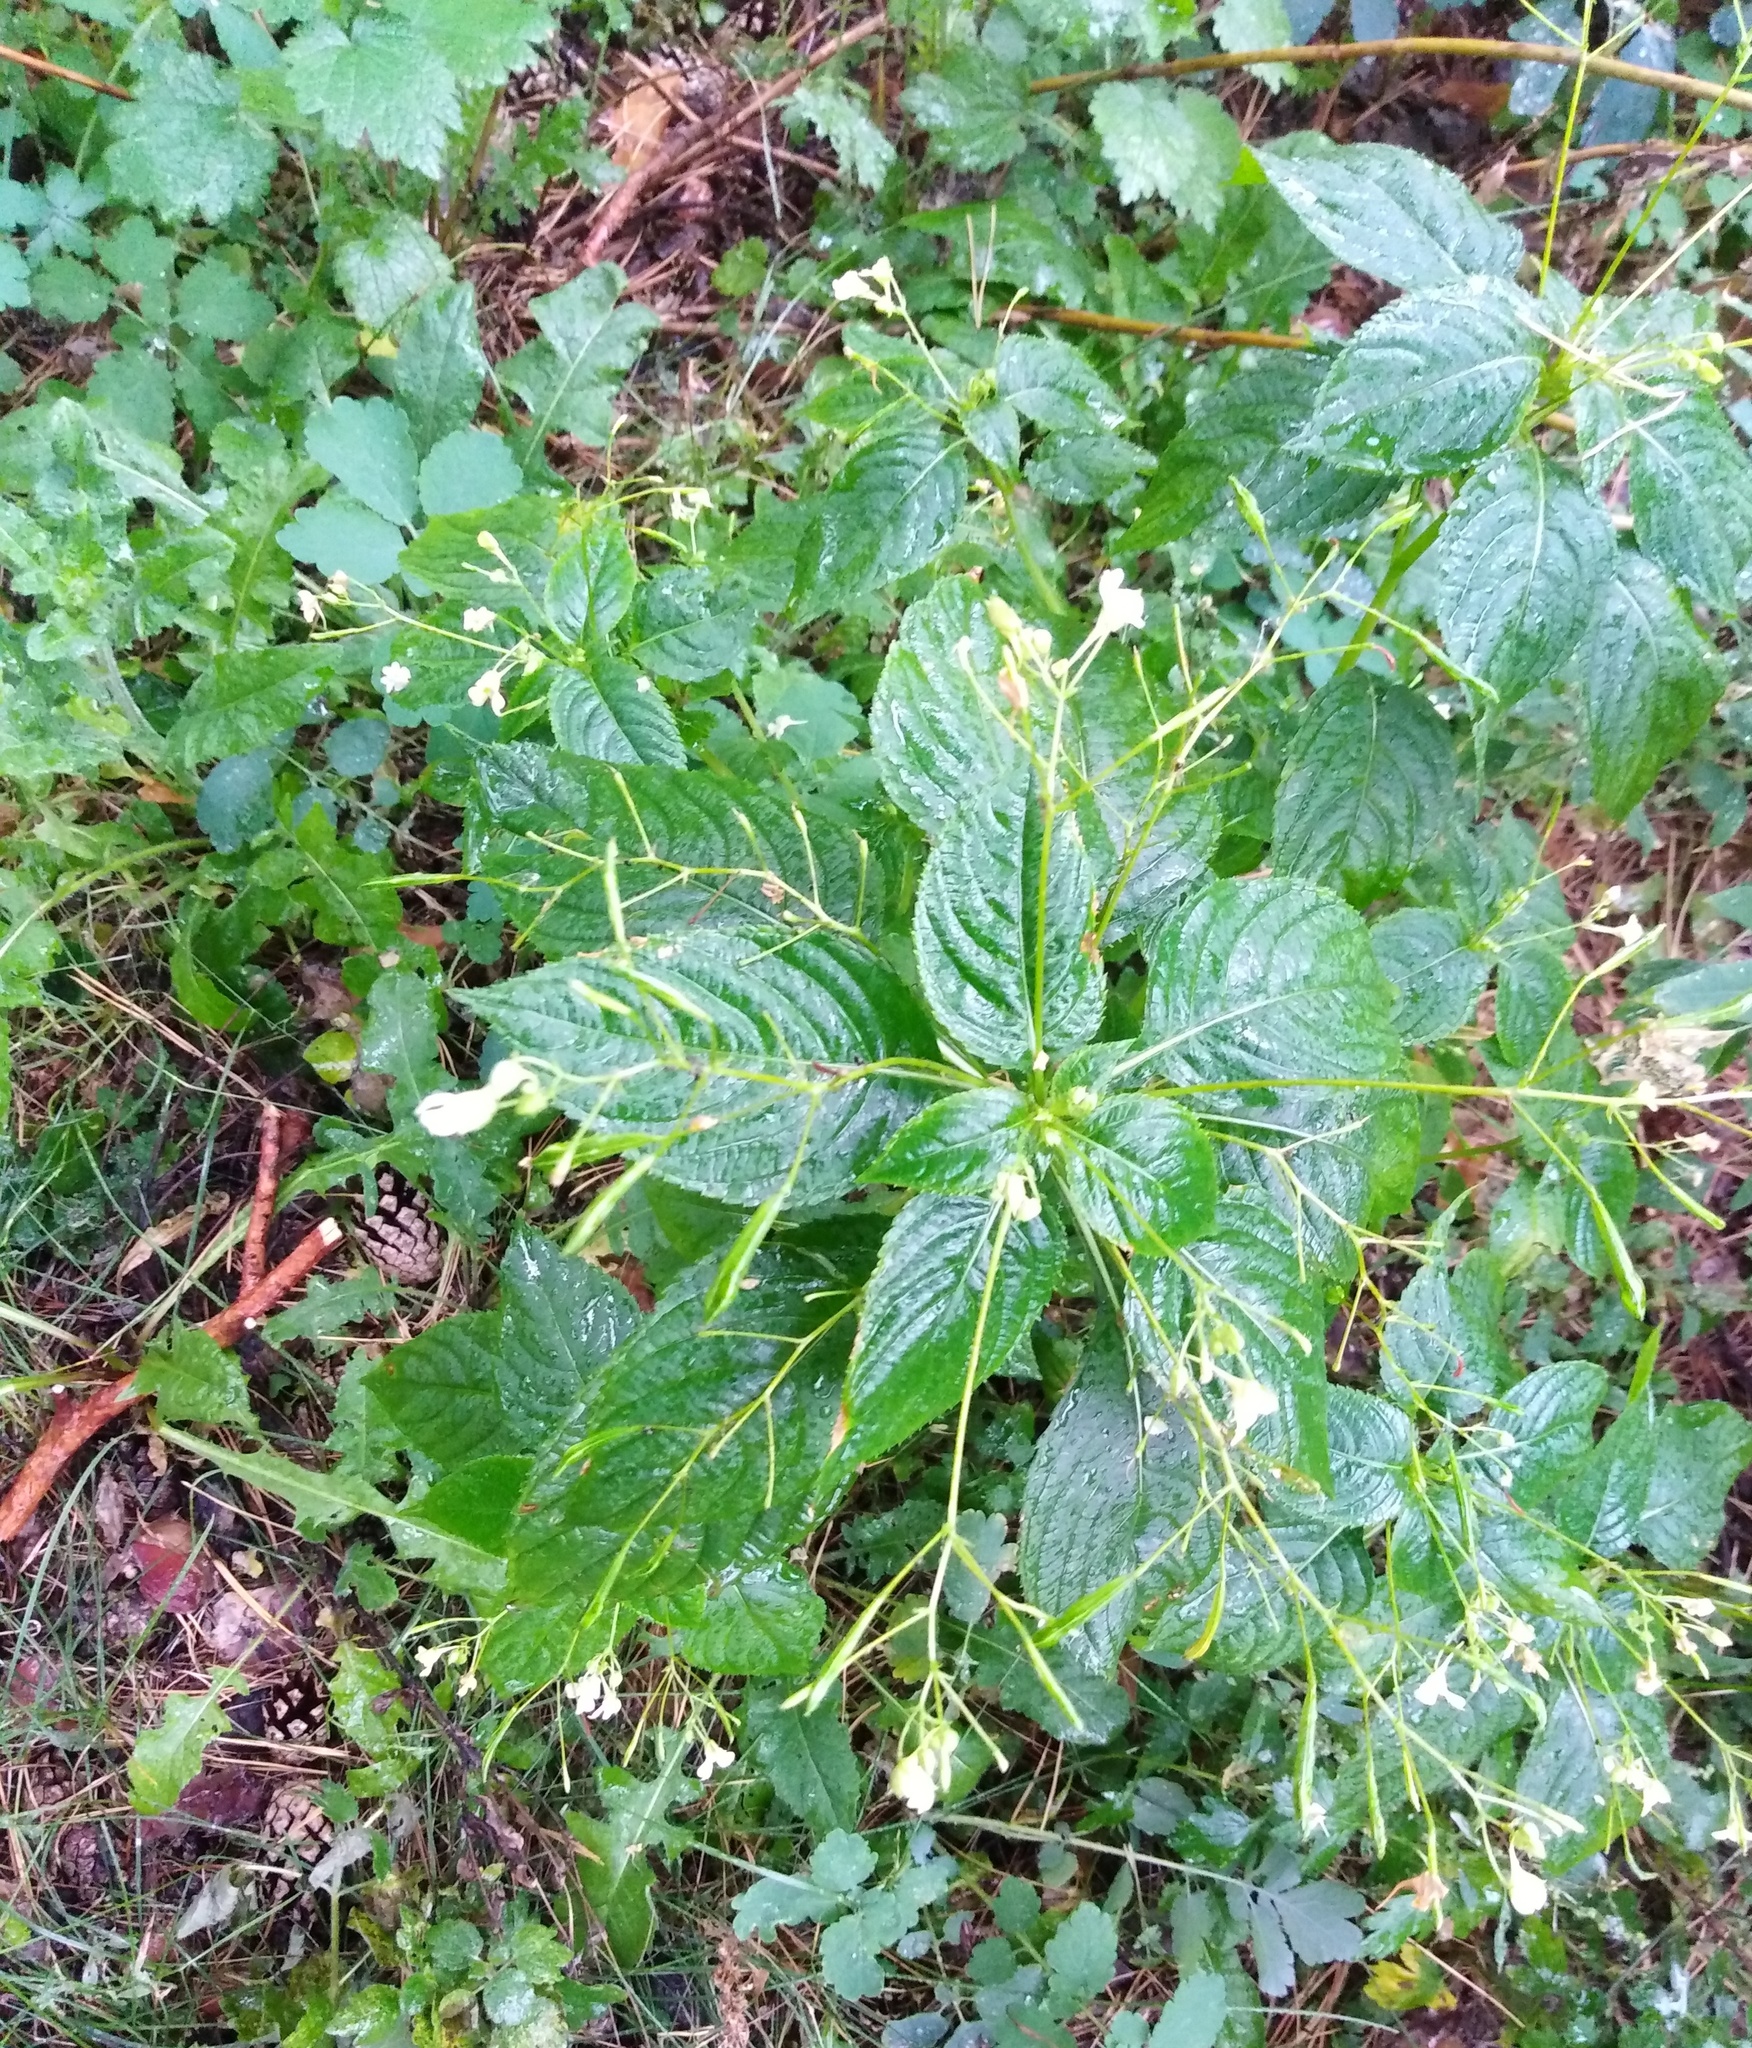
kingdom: Plantae
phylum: Tracheophyta
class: Magnoliopsida
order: Ericales
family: Balsaminaceae
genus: Impatiens
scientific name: Impatiens parviflora
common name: Small balsam
